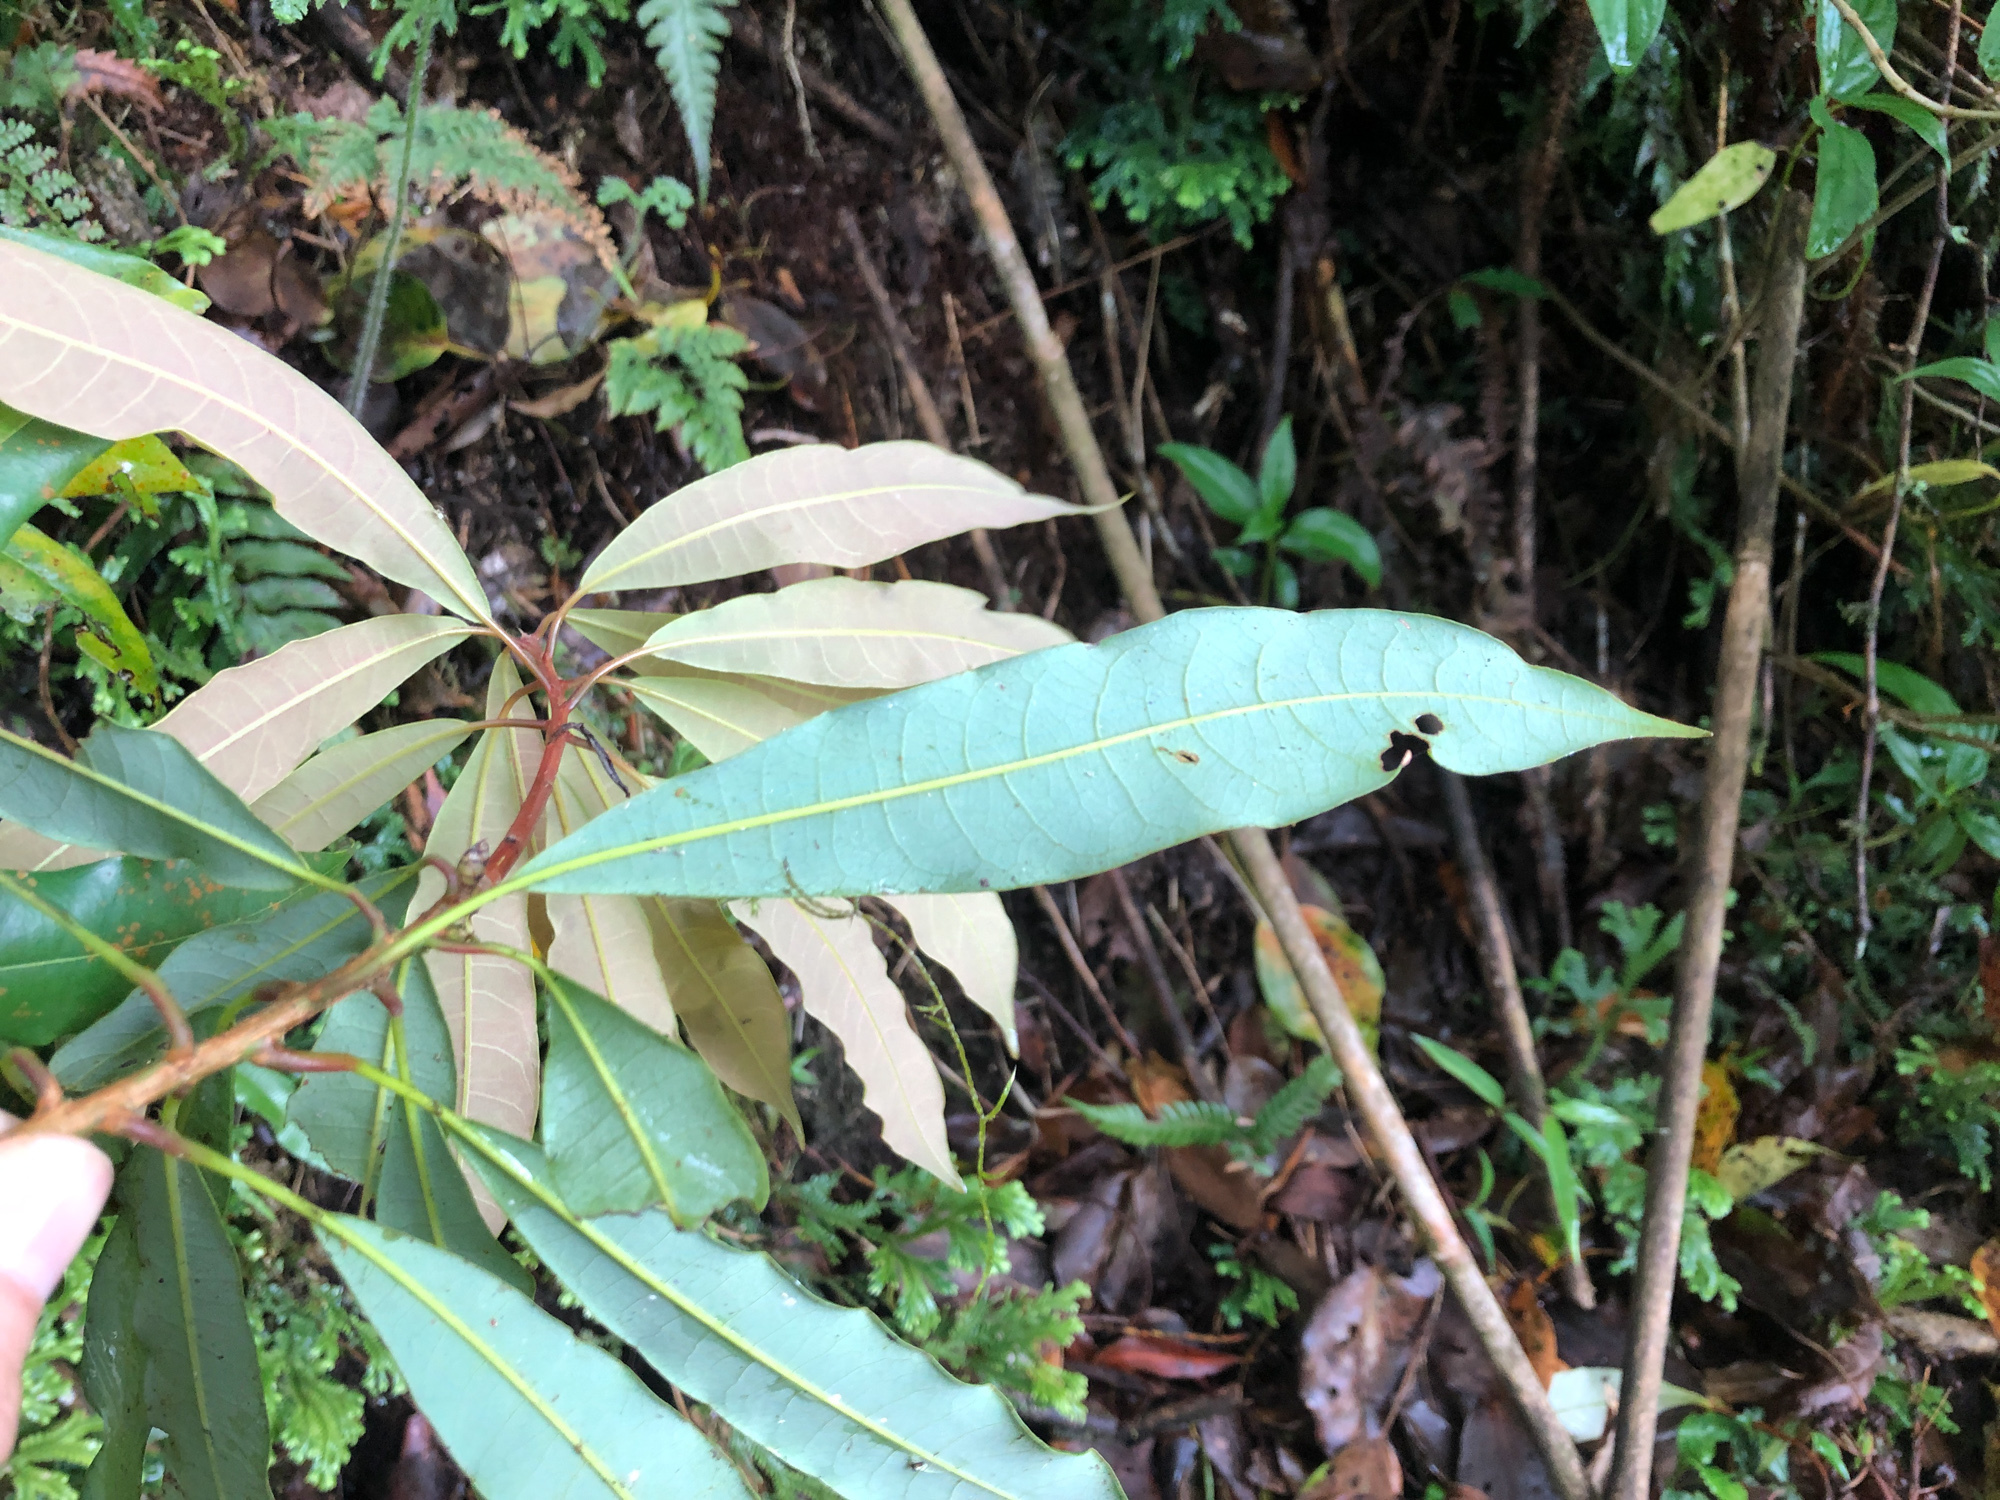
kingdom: Plantae
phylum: Tracheophyta
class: Magnoliopsida
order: Laurales
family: Lauraceae
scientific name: Lauraceae
